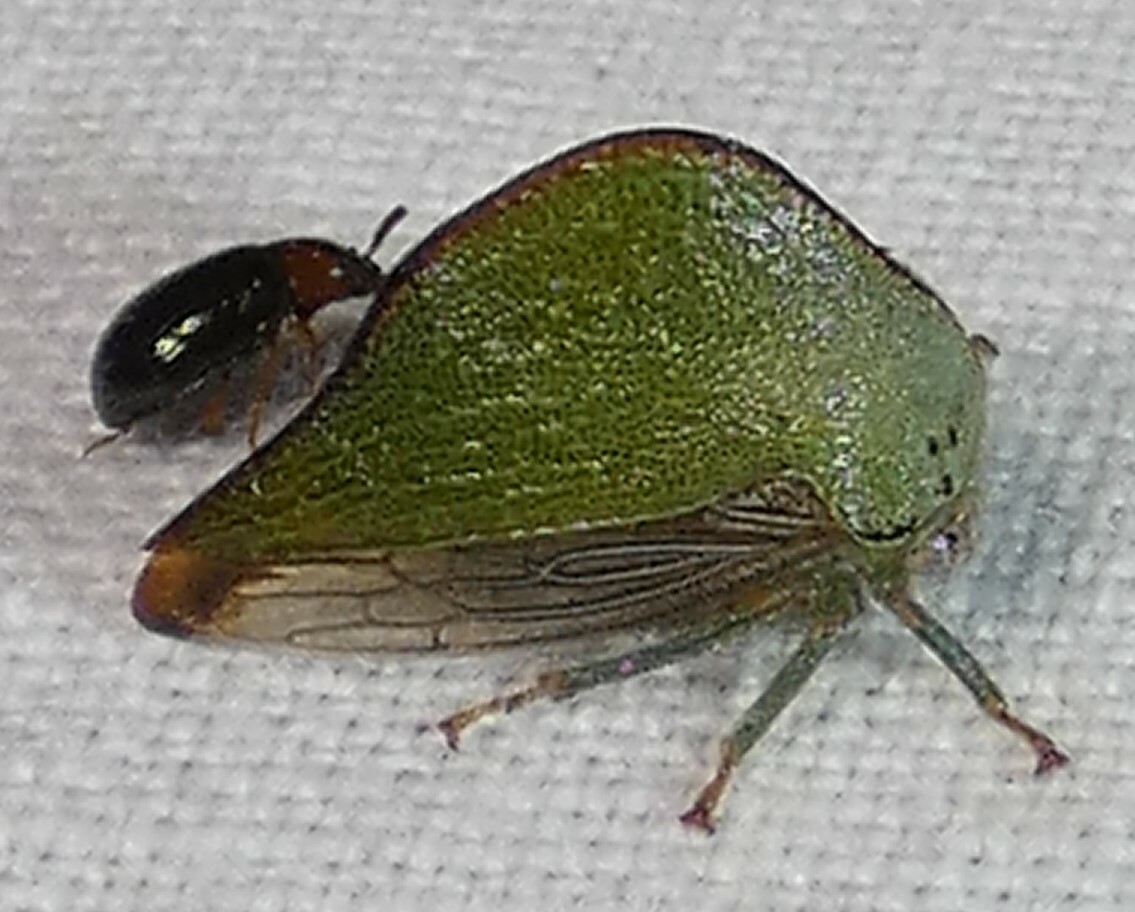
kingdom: Animalia
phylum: Arthropoda
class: Insecta
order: Hemiptera
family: Membracidae
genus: Archasia
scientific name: Archasia pallida
